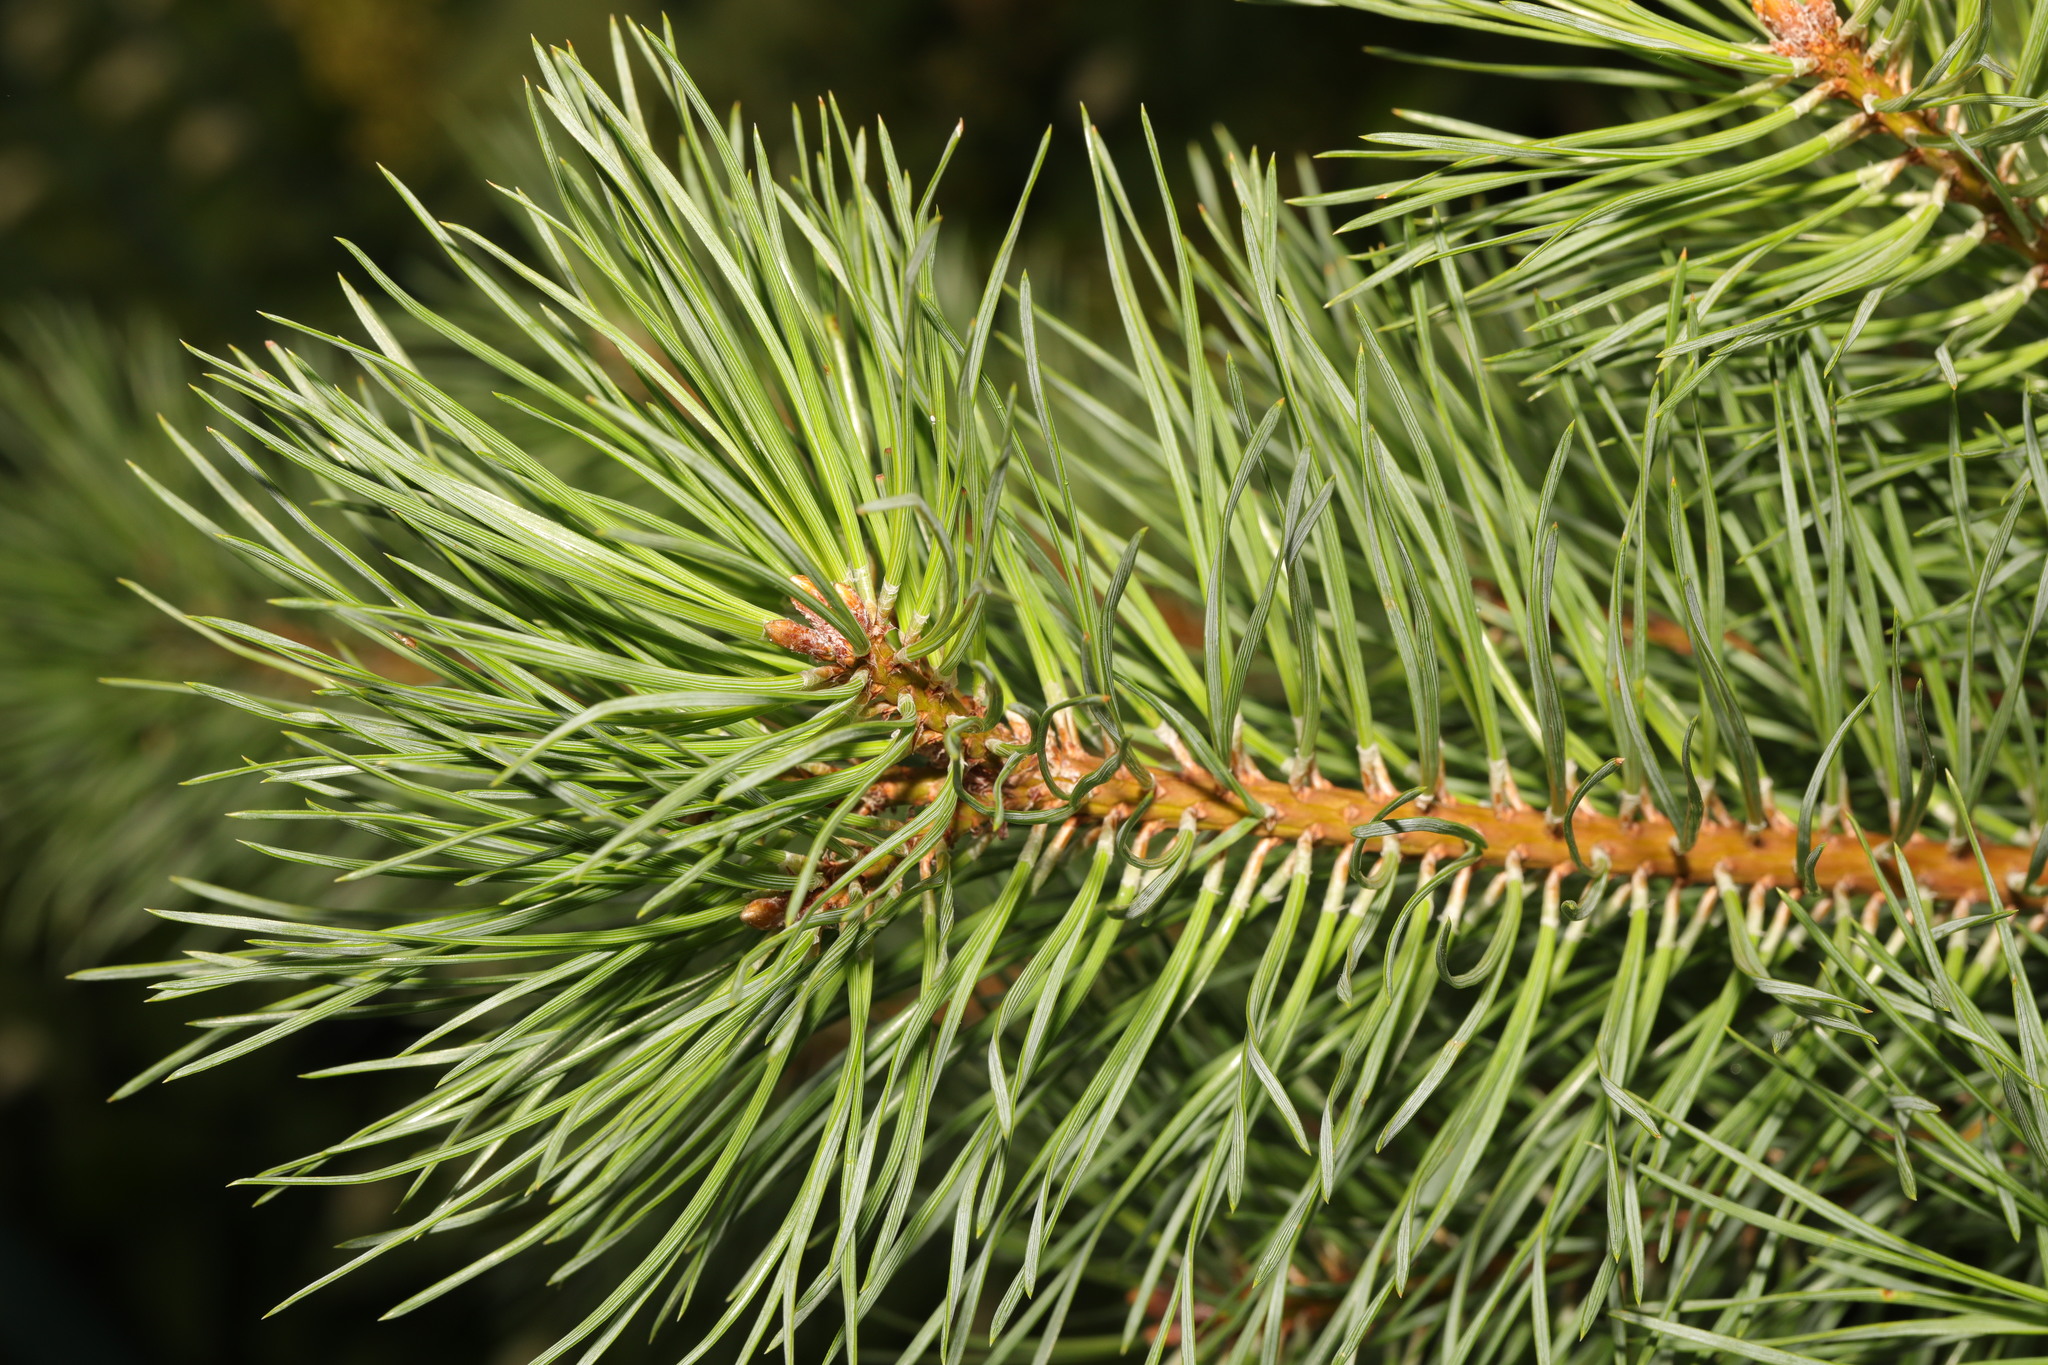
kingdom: Plantae
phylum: Tracheophyta
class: Pinopsida
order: Pinales
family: Pinaceae
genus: Pinus
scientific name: Pinus sylvestris
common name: Scots pine
